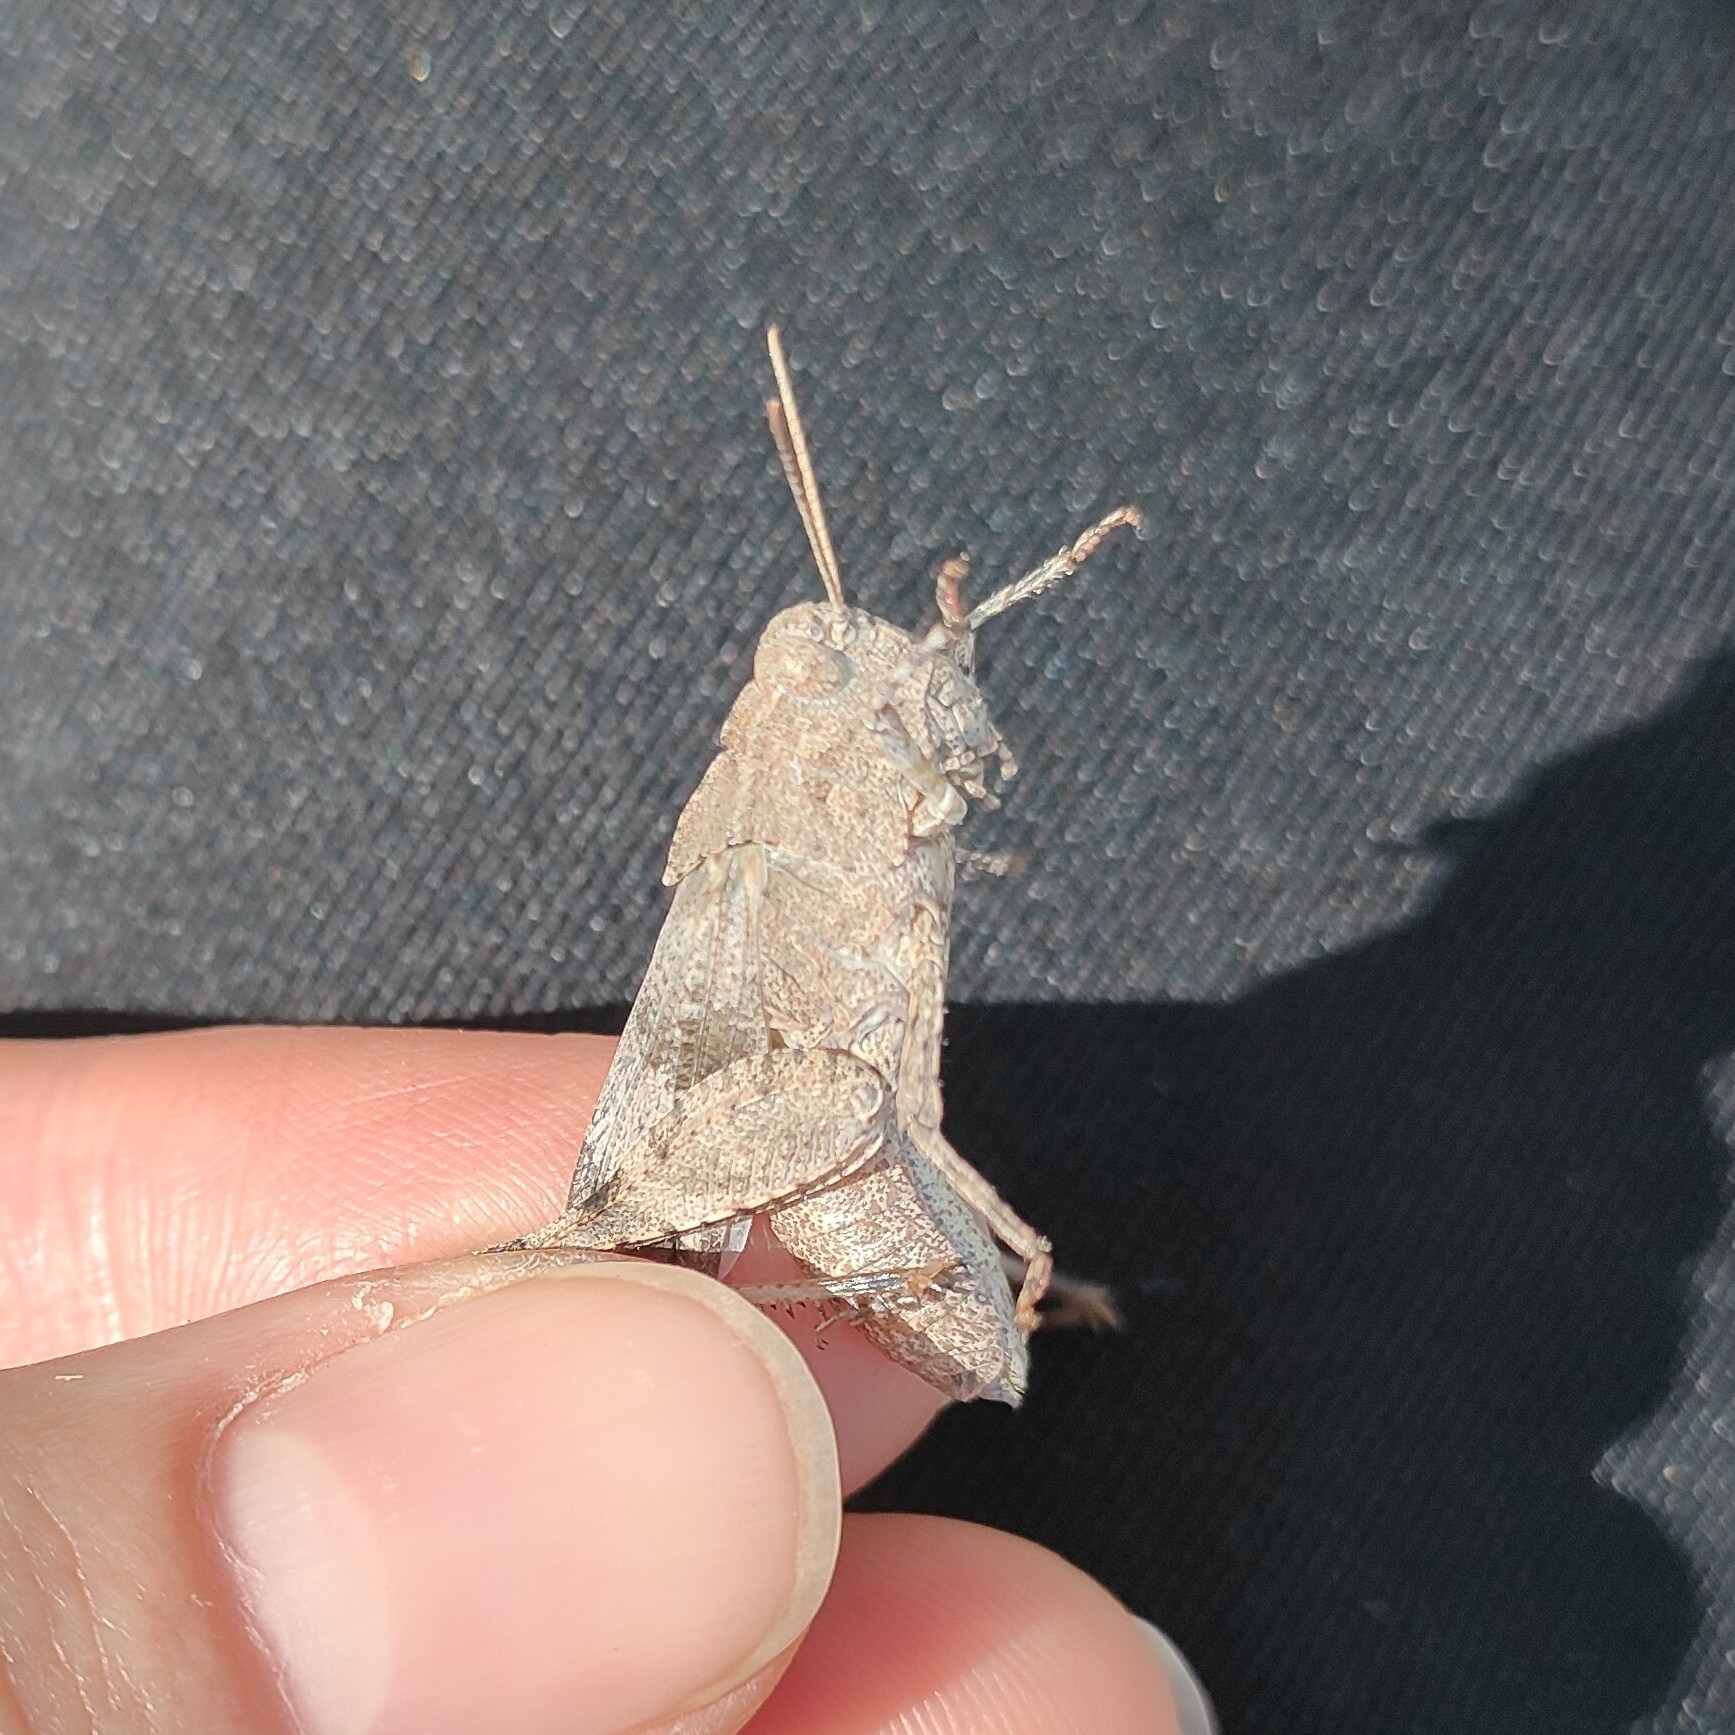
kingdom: Animalia
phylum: Arthropoda
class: Insecta
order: Orthoptera
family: Acrididae
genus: Oedipoda
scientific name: Oedipoda caerulescens
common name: Blue-winged grasshopper
